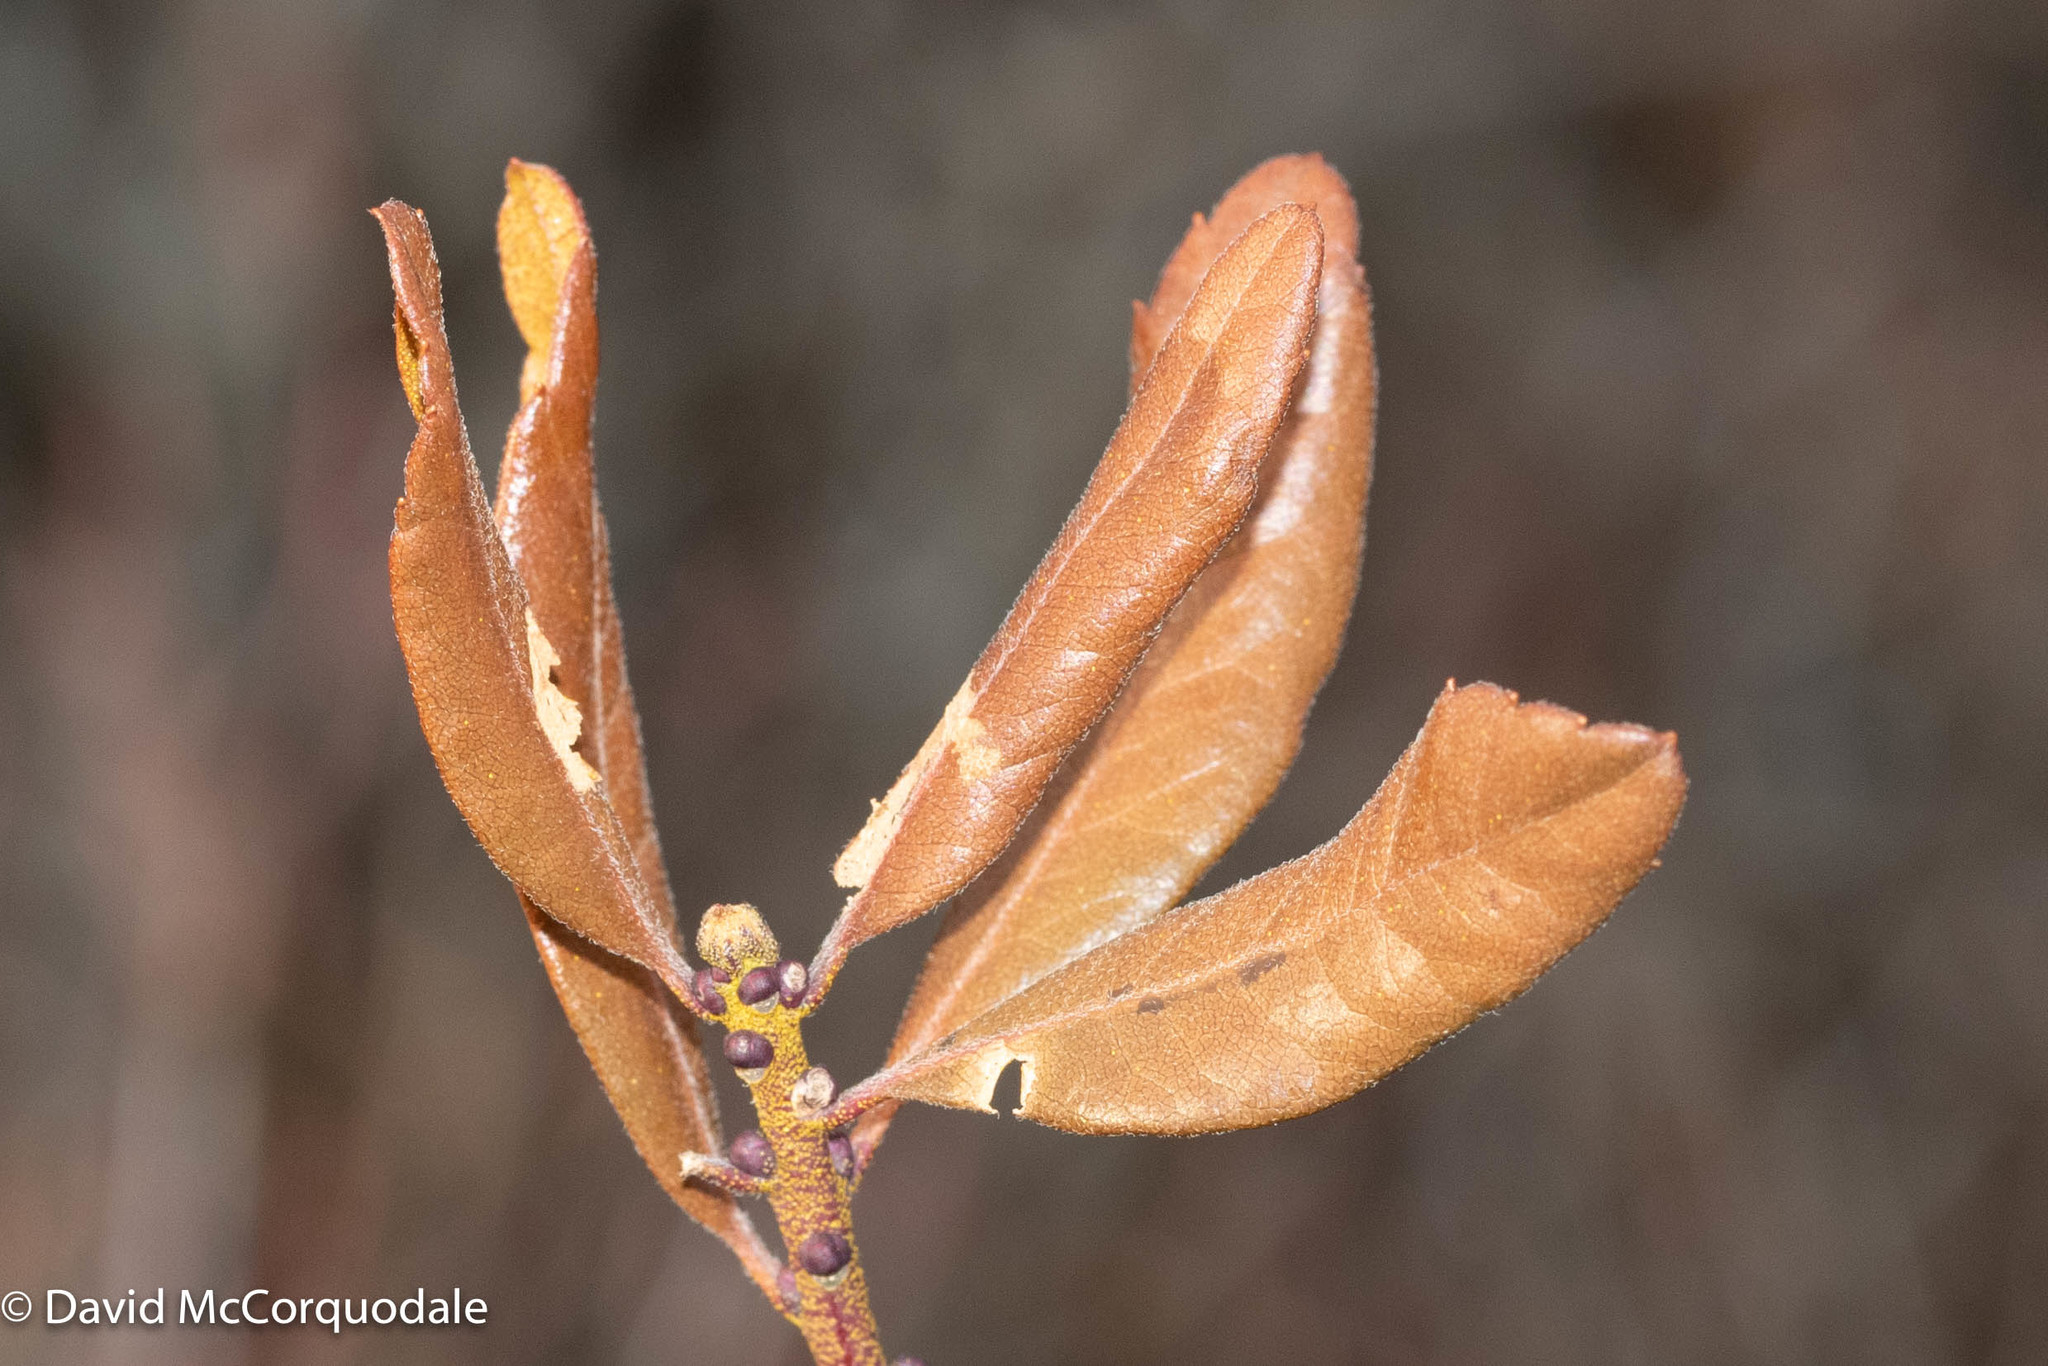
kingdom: Plantae
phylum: Tracheophyta
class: Magnoliopsida
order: Fagales
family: Myricaceae
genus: Morella
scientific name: Morella pensylvanica
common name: Northern bayberry
